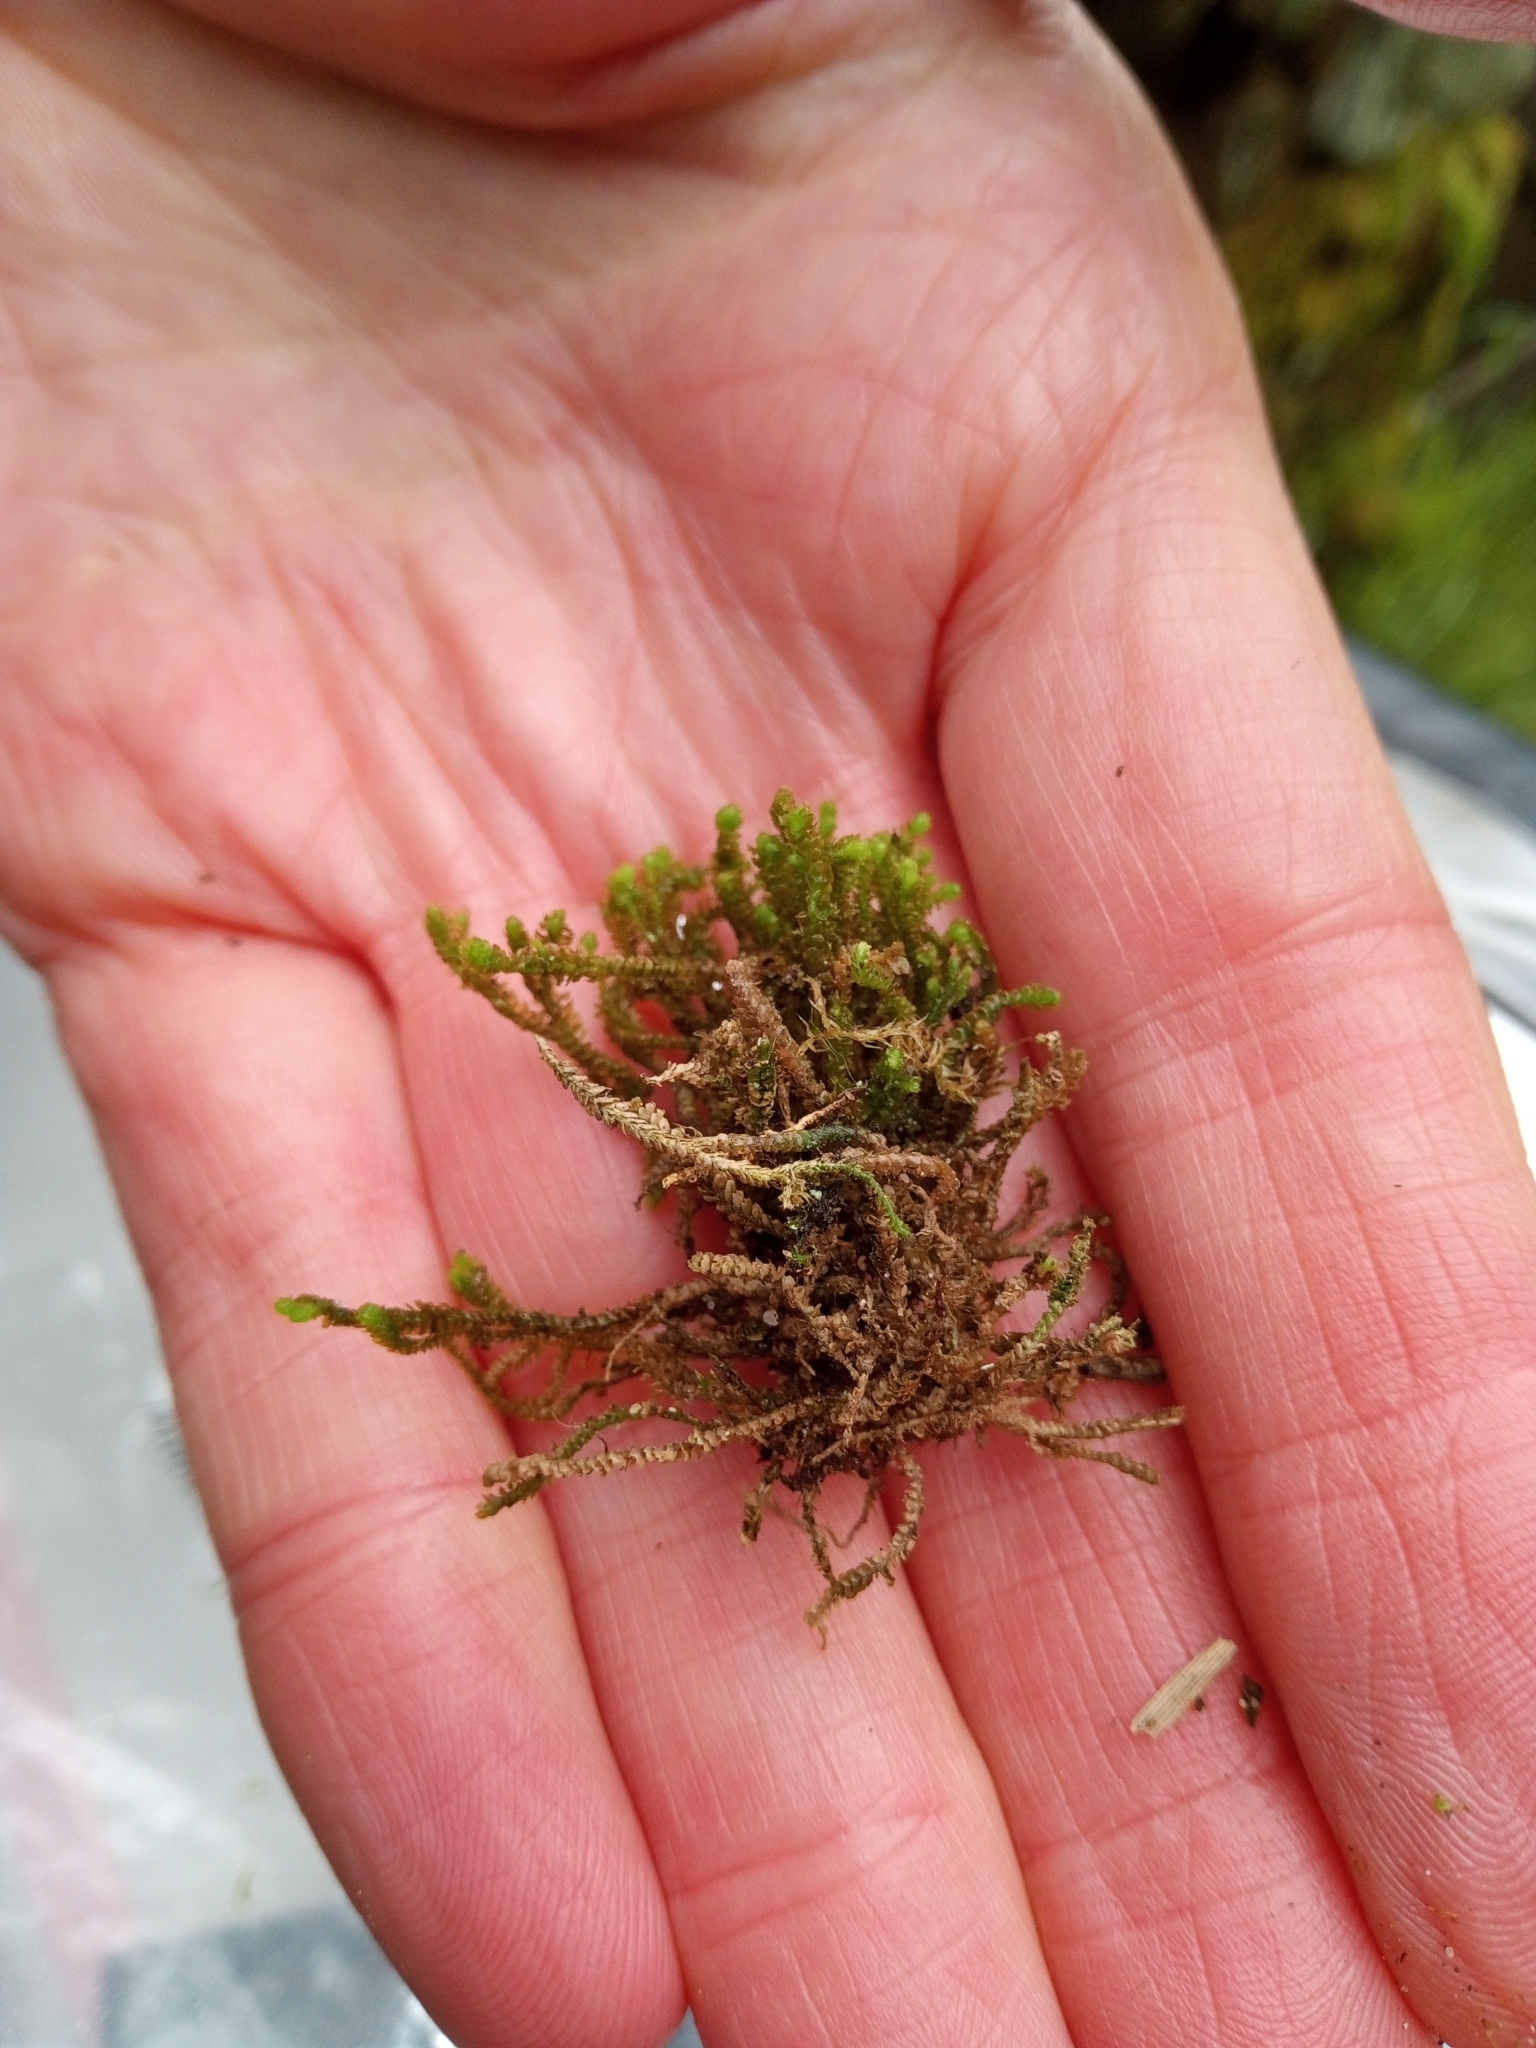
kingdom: Plantae
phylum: Marchantiophyta
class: Jungermanniopsida
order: Jungermanniales
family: Anastrophyllaceae
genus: Neoorthocaulis
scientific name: Neoorthocaulis floerkei
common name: Floerke's barbilophozia
